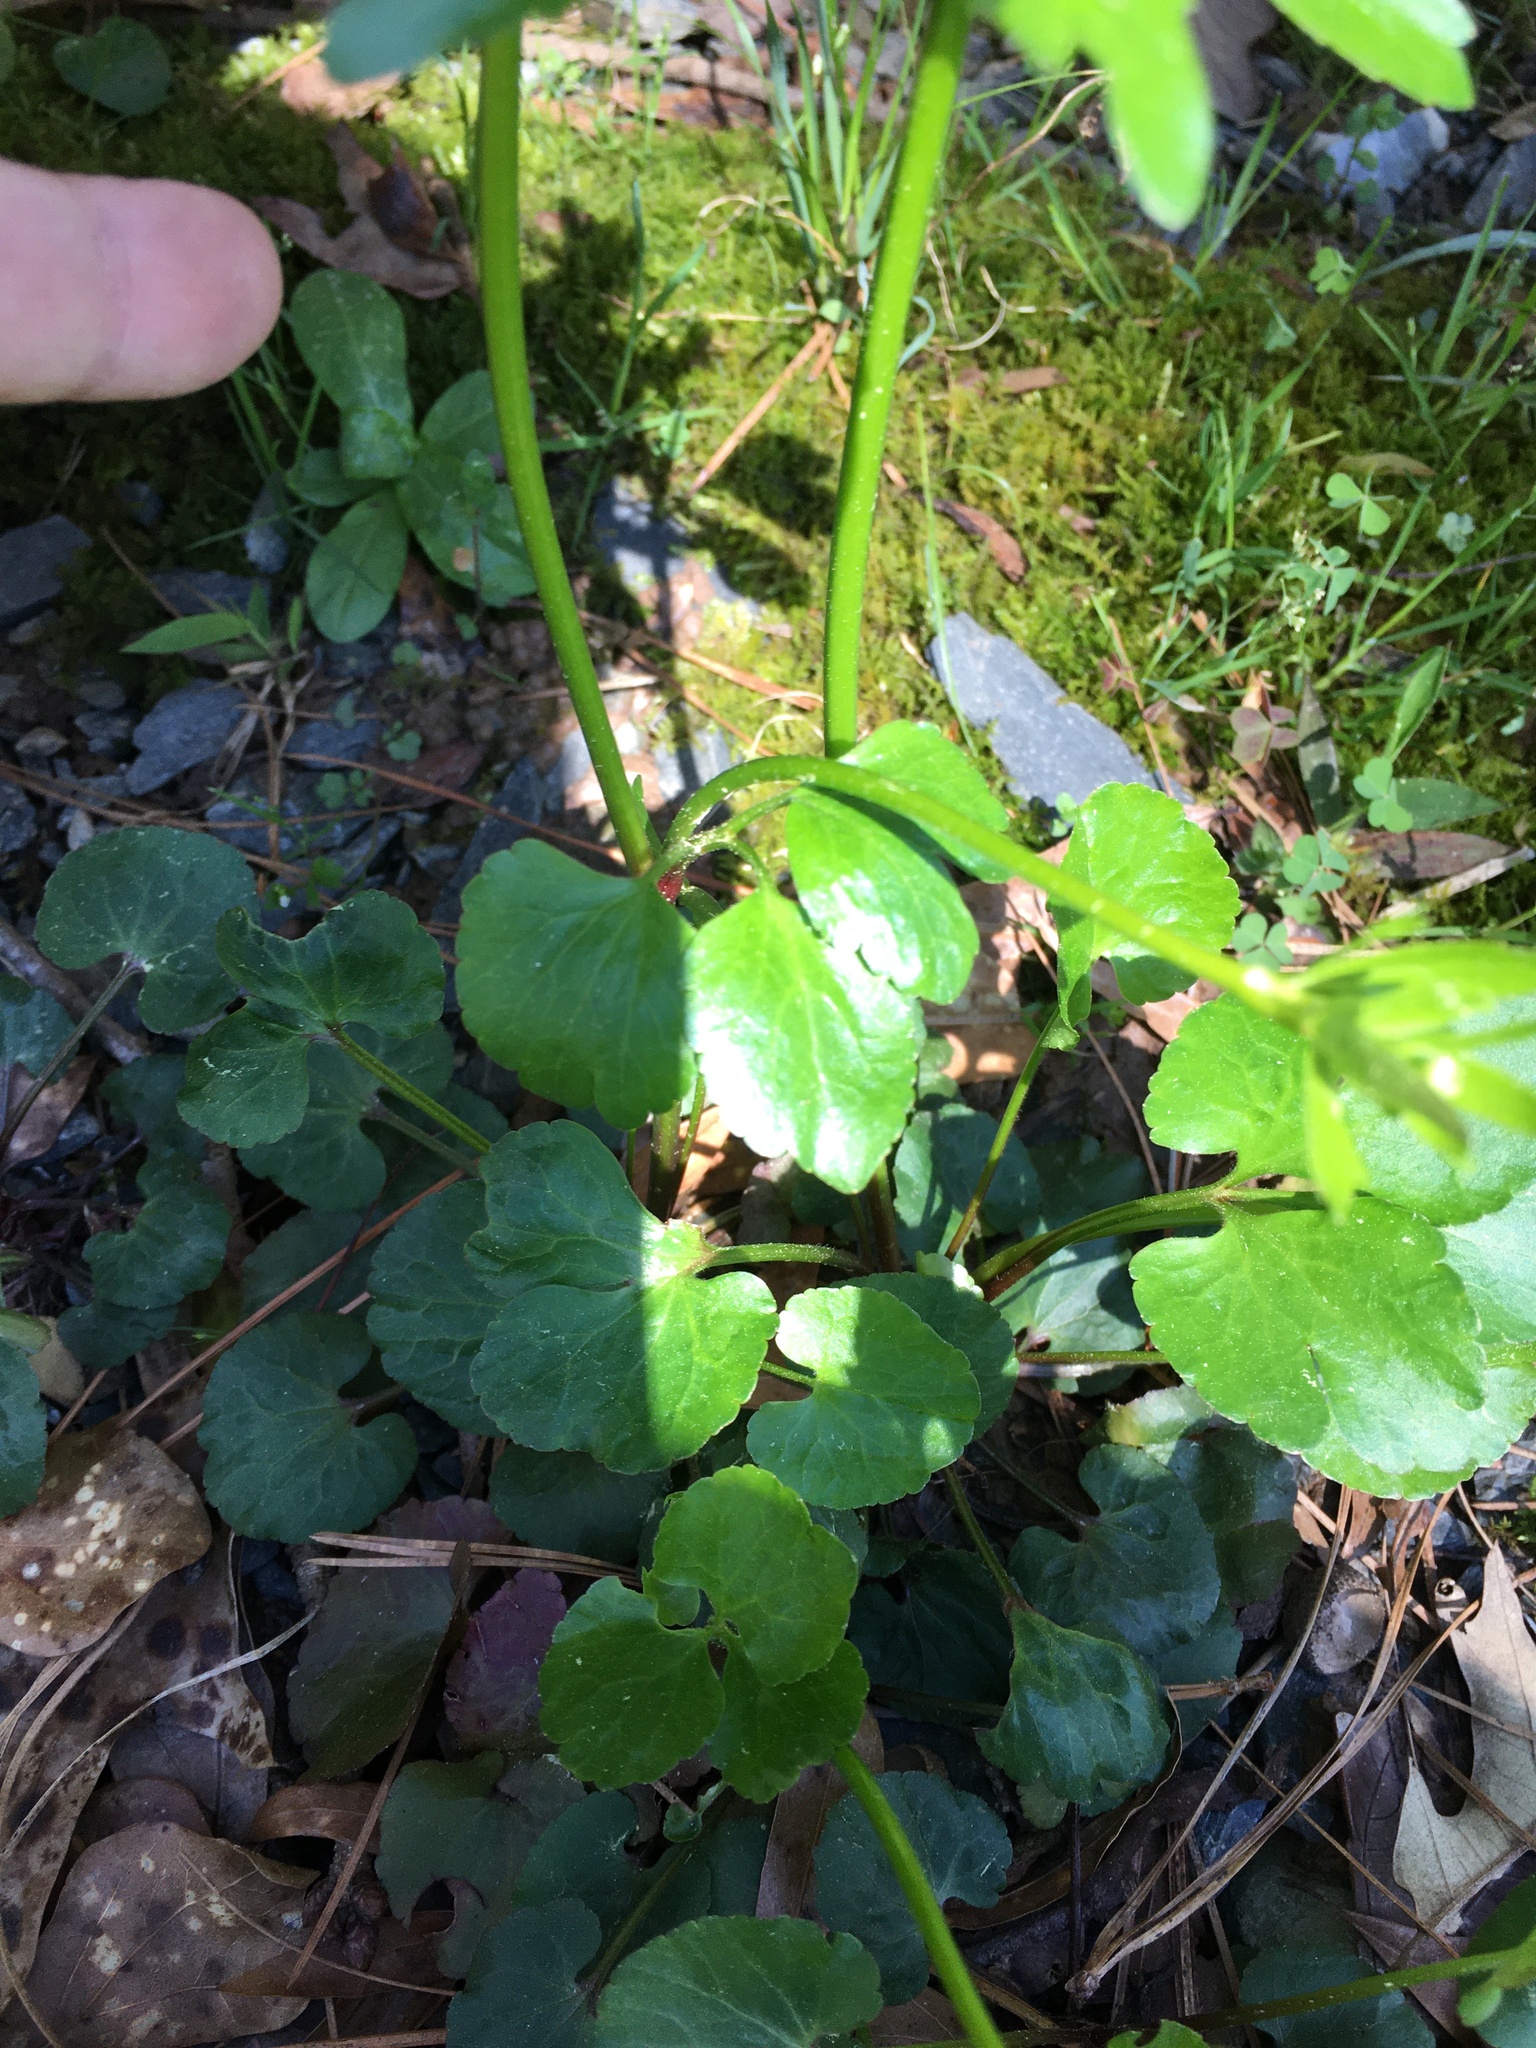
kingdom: Plantae
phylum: Tracheophyta
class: Magnoliopsida
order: Ranunculales
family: Ranunculaceae
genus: Ranunculus
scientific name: Ranunculus abortivus
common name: Early wood buttercup
